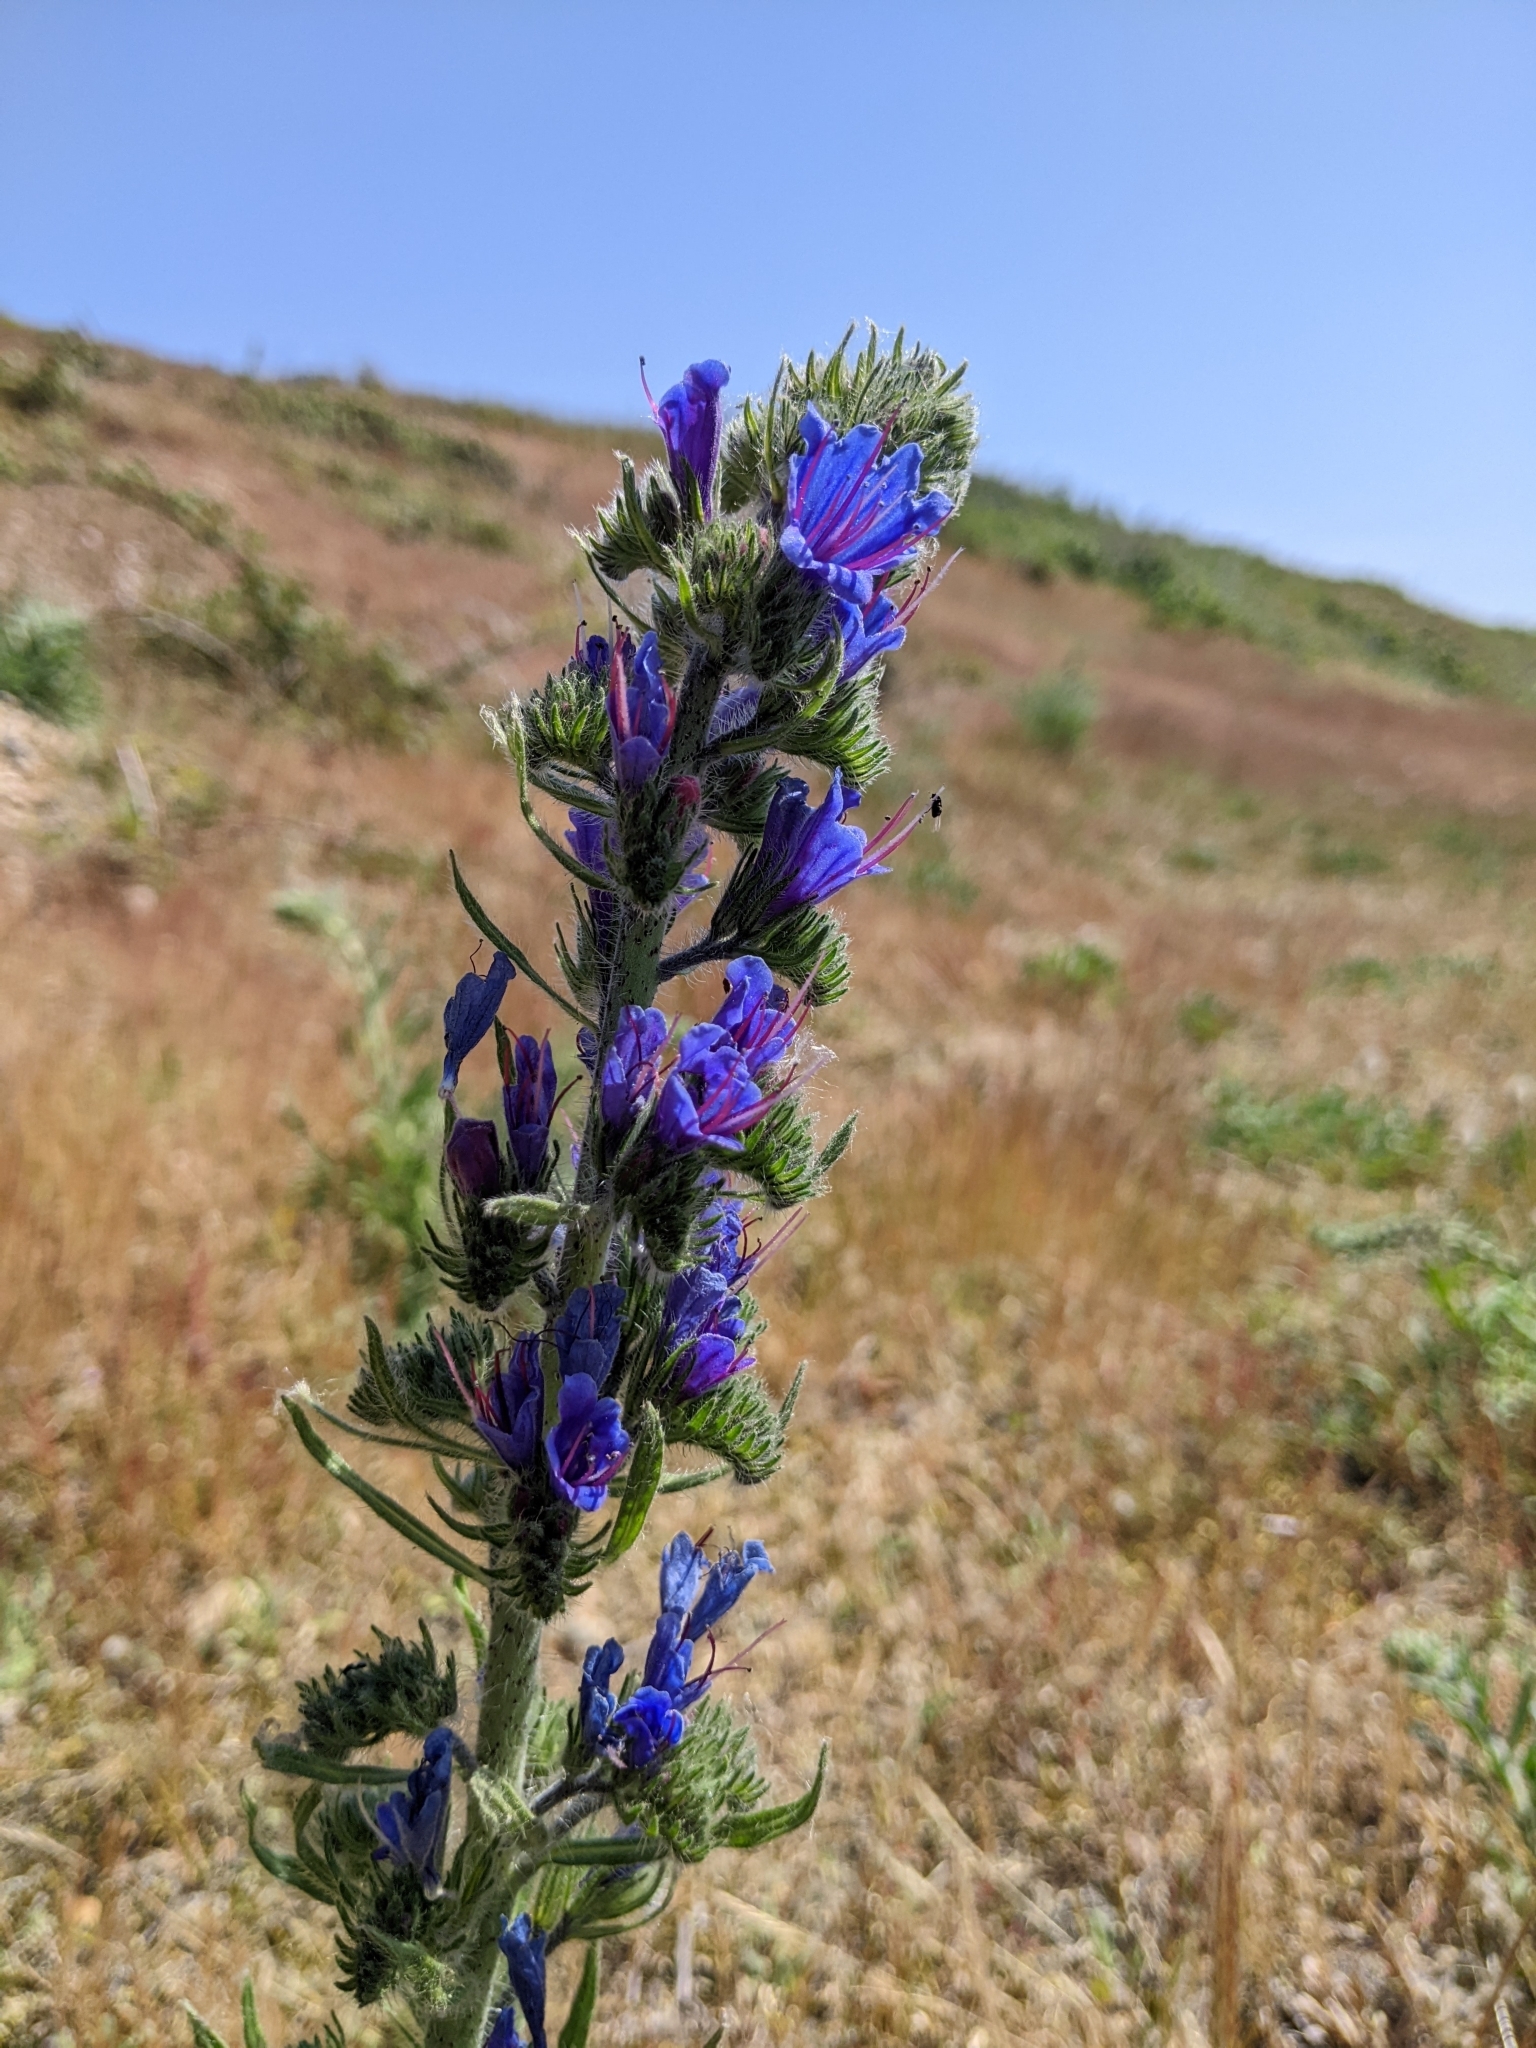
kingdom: Plantae
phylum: Tracheophyta
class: Magnoliopsida
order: Boraginales
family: Boraginaceae
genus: Echium
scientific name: Echium vulgare
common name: Common viper's bugloss
